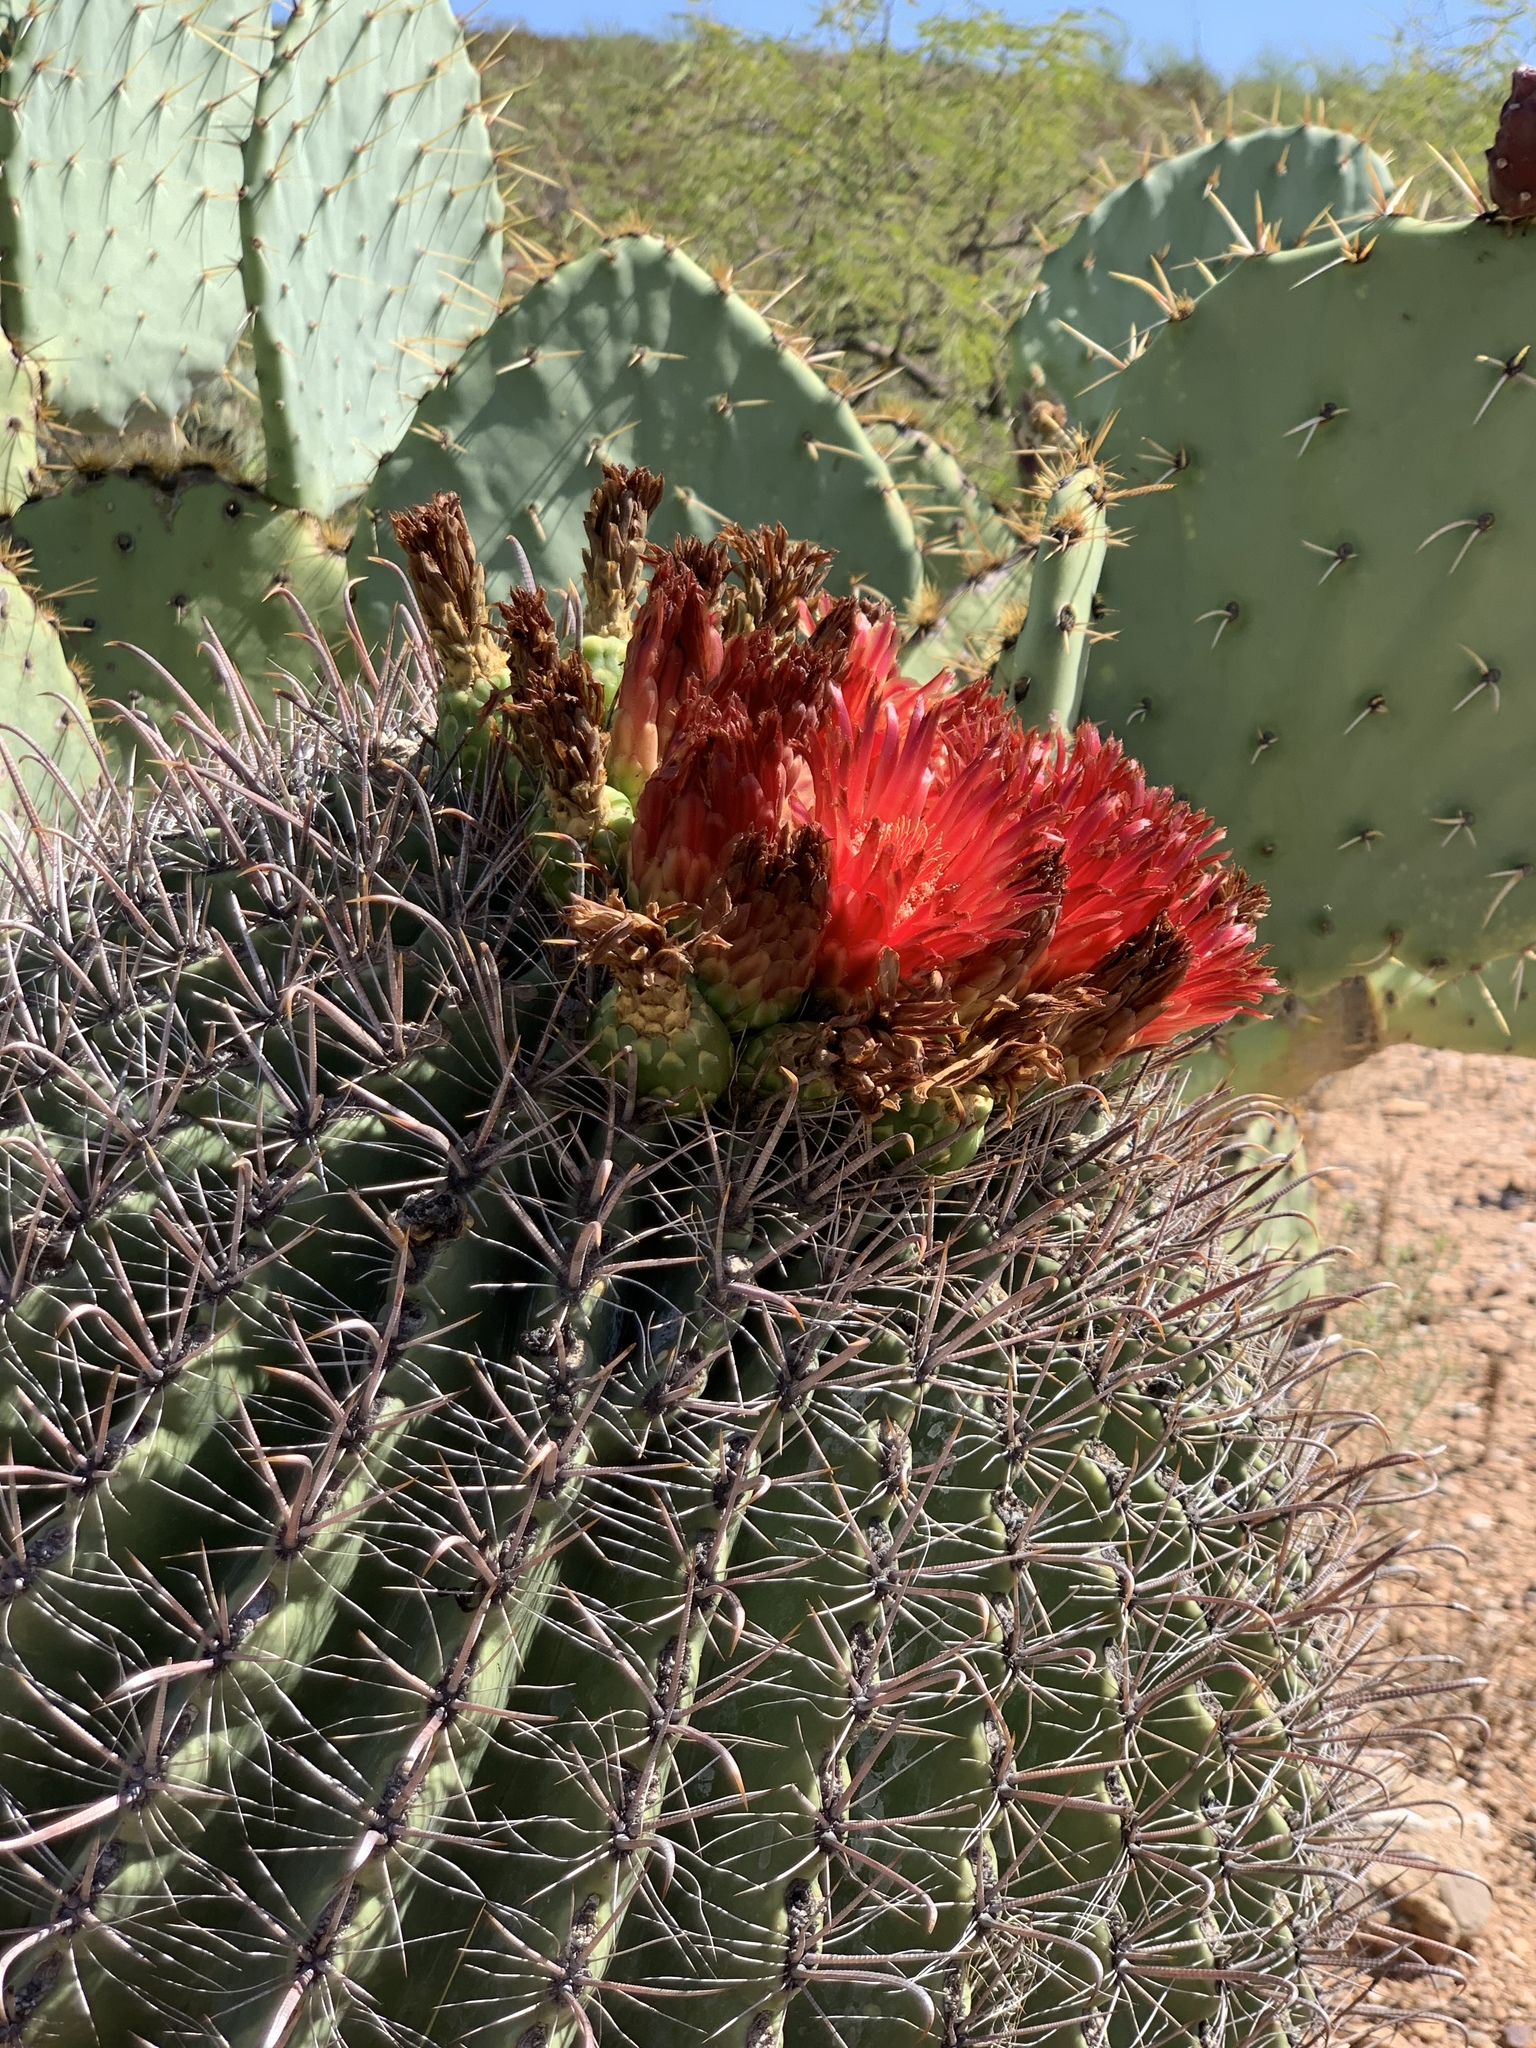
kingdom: Plantae
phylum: Tracheophyta
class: Magnoliopsida
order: Caryophyllales
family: Cactaceae
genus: Ferocactus
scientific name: Ferocactus wislizeni
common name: Candy barrel cactus
